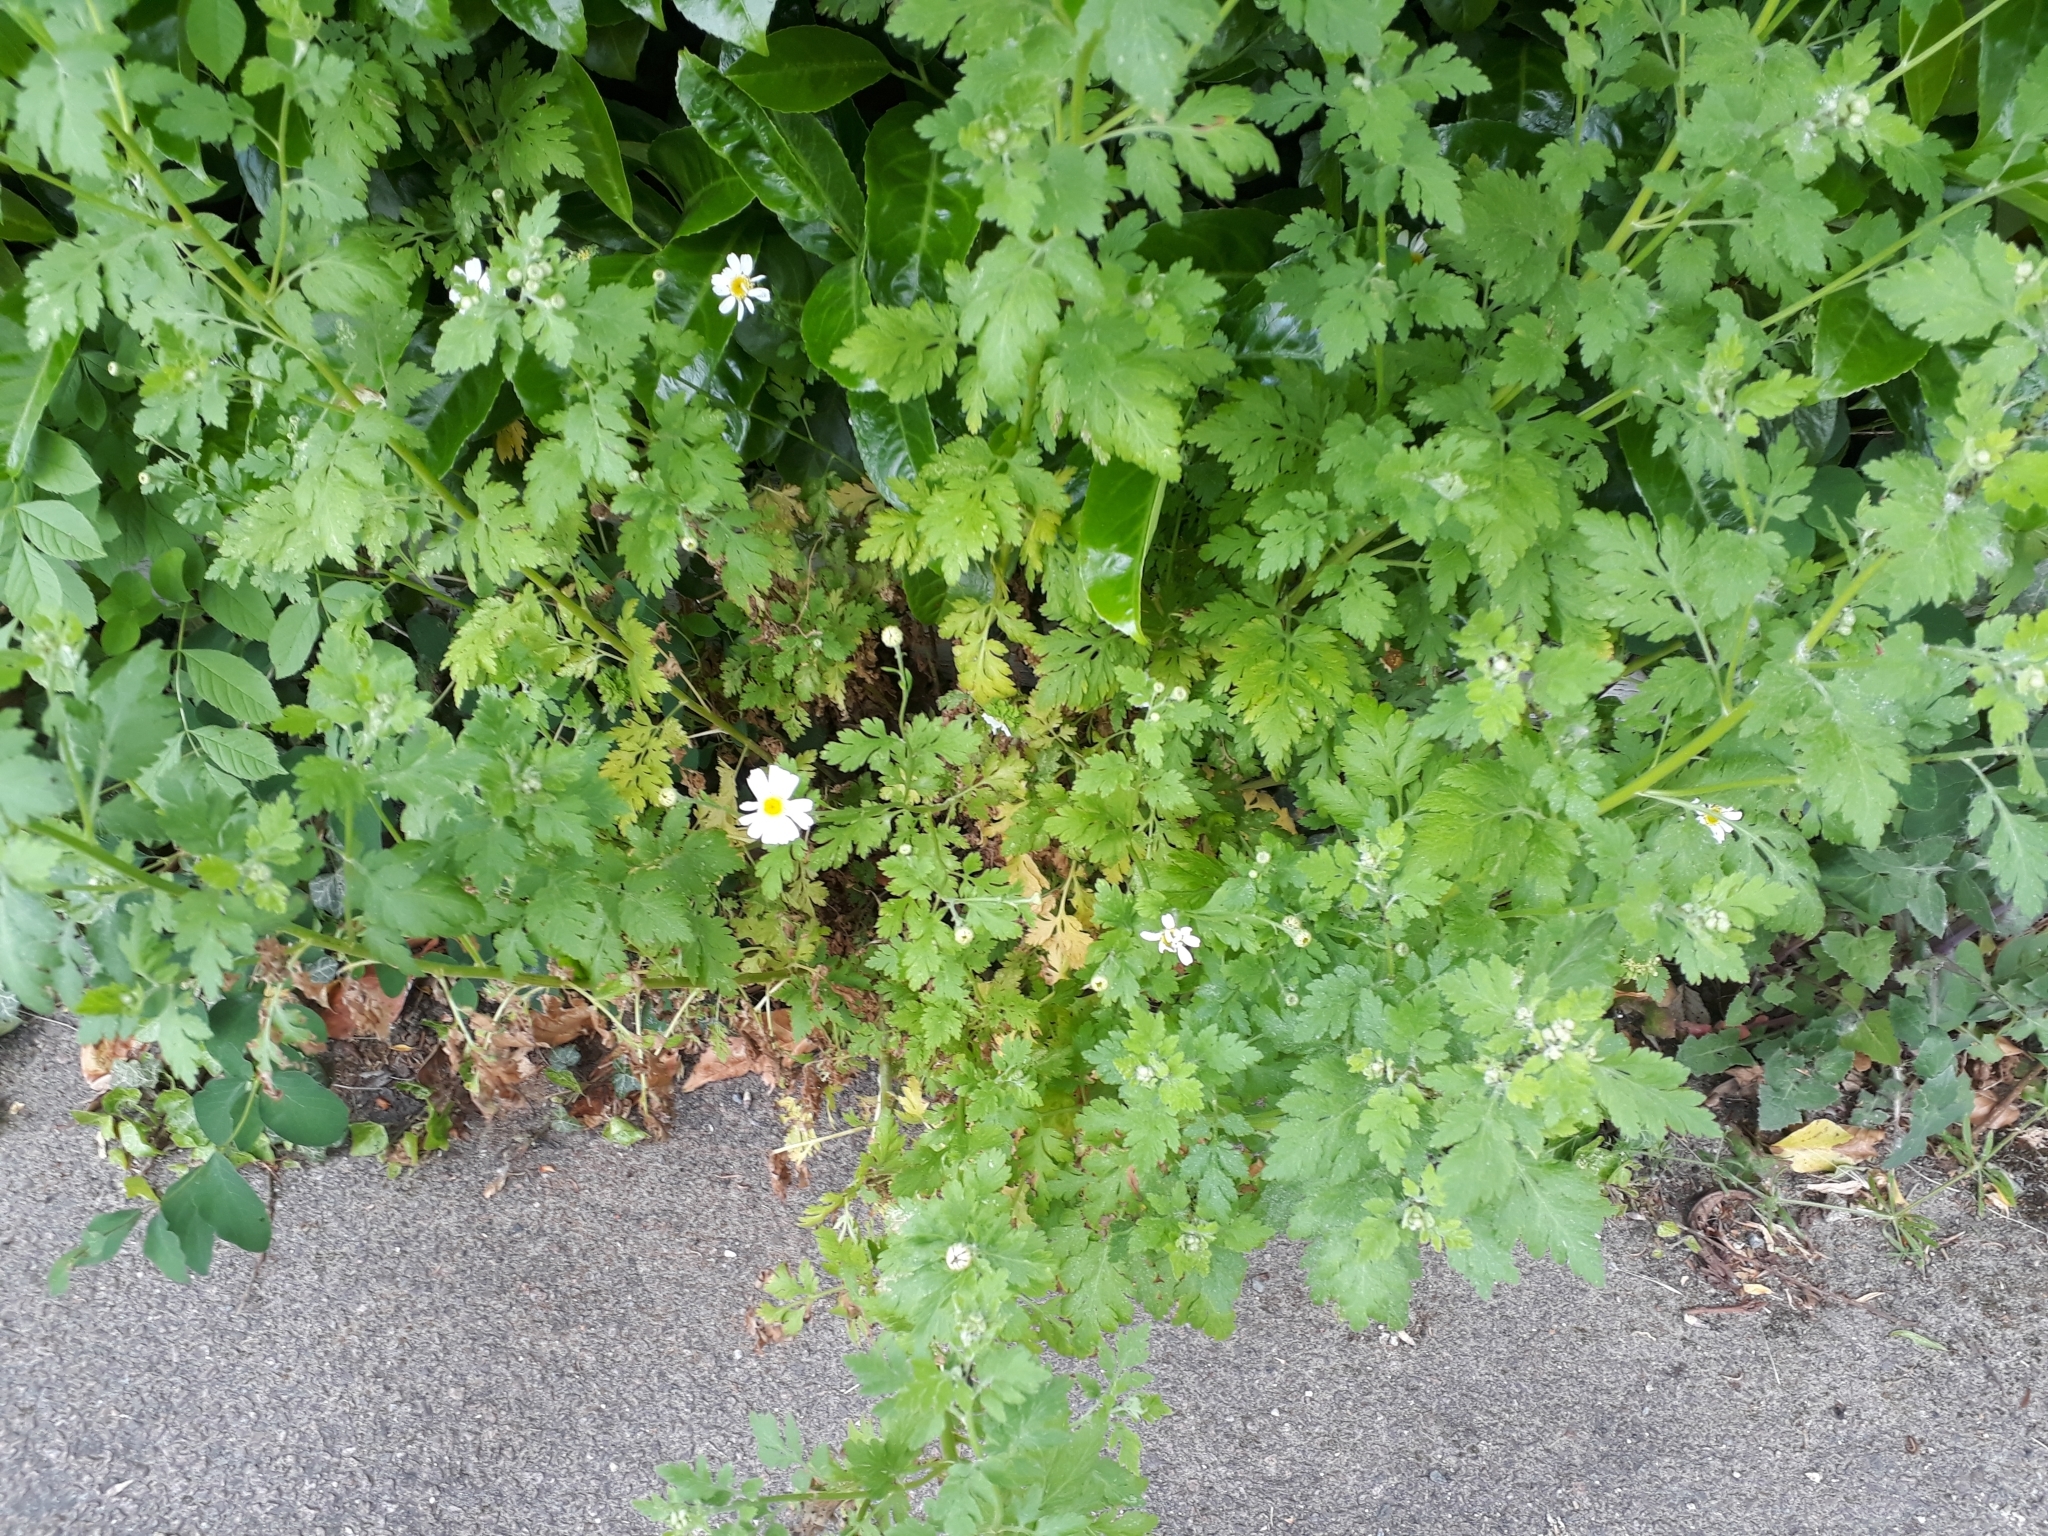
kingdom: Plantae
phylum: Tracheophyta
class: Magnoliopsida
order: Asterales
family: Asteraceae
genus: Tanacetum
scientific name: Tanacetum parthenium
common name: Feverfew
